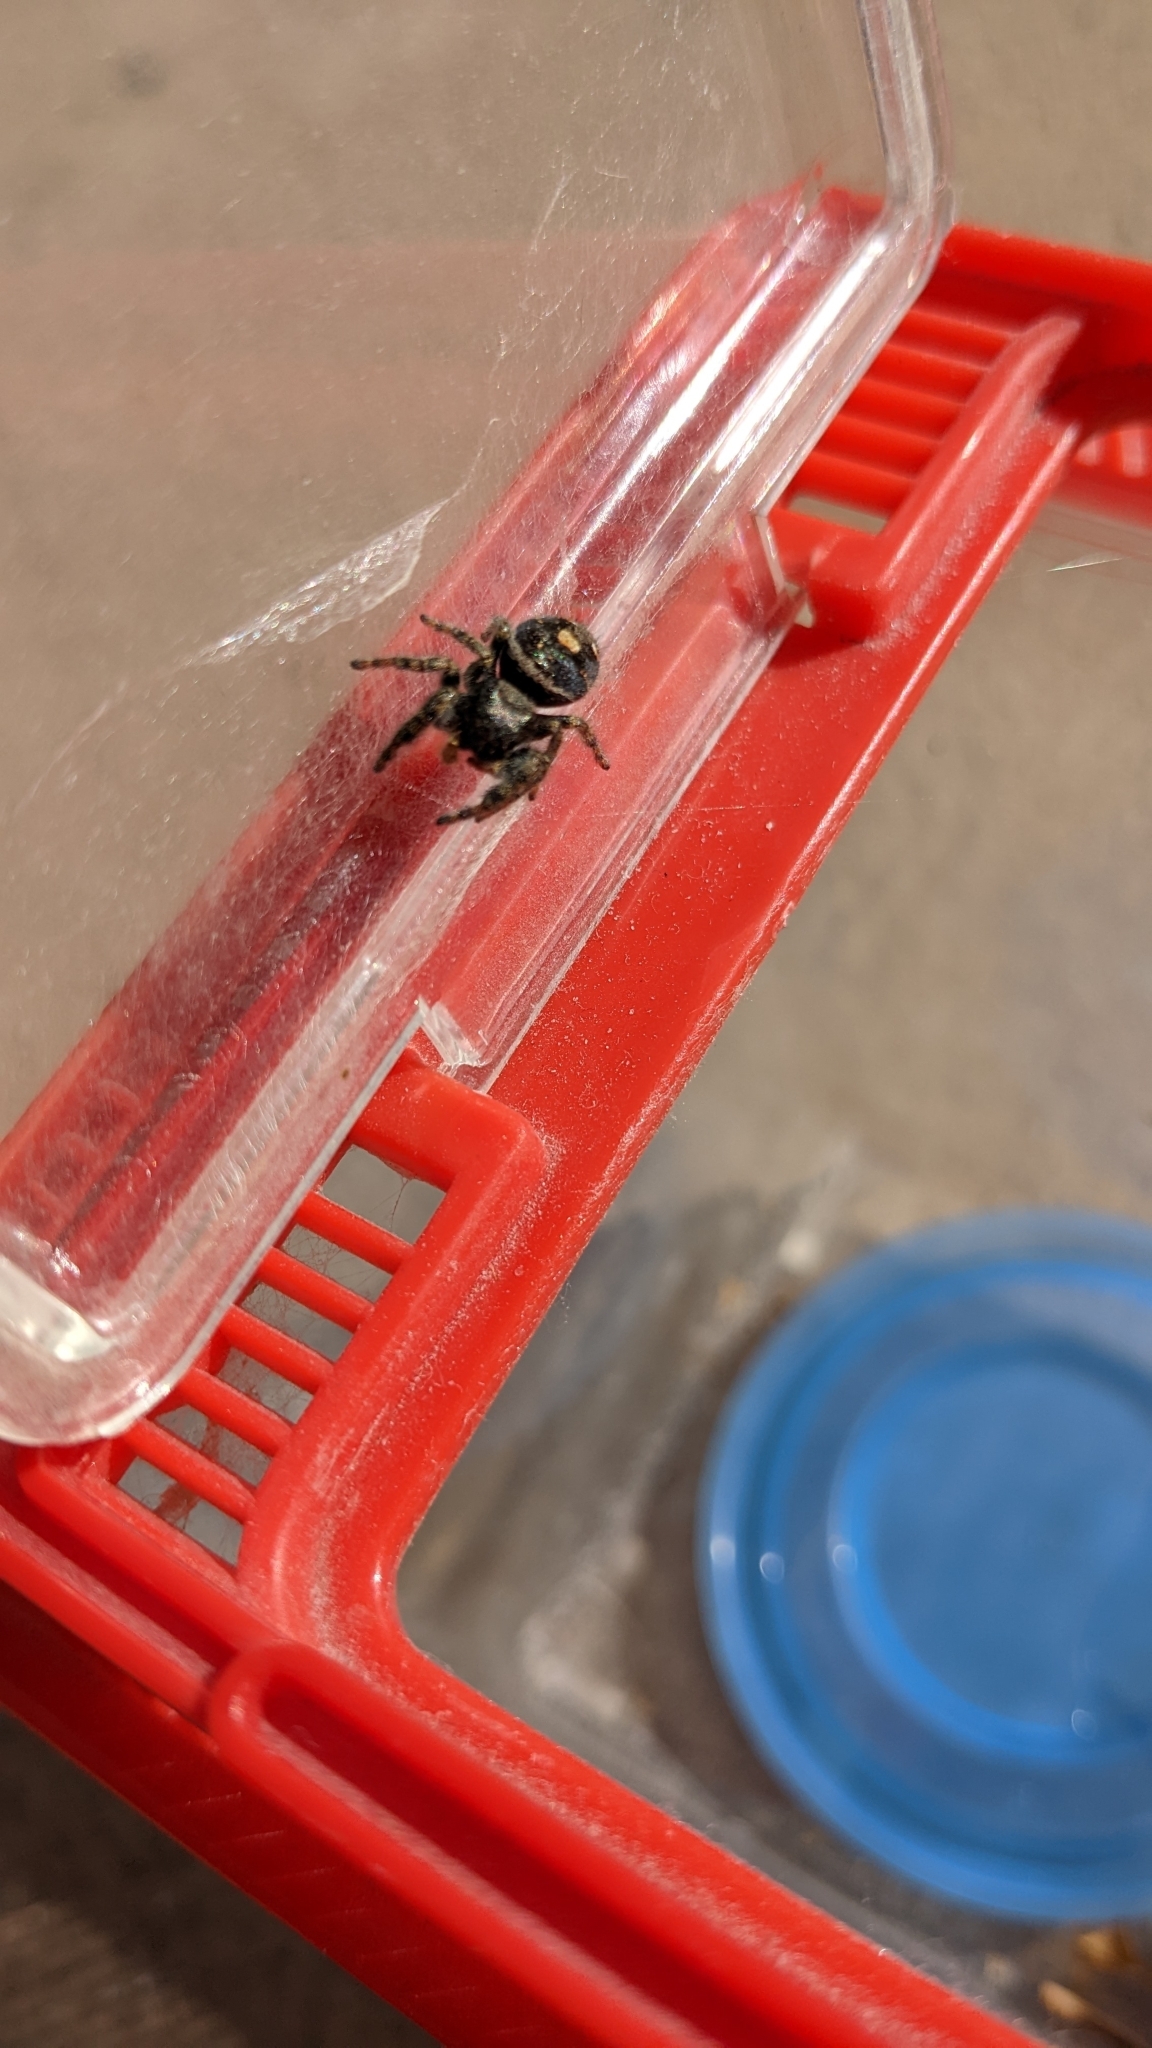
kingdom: Animalia
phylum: Arthropoda
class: Arachnida
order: Araneae
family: Salticidae
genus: Phidippus
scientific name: Phidippus audax
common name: Bold jumper
